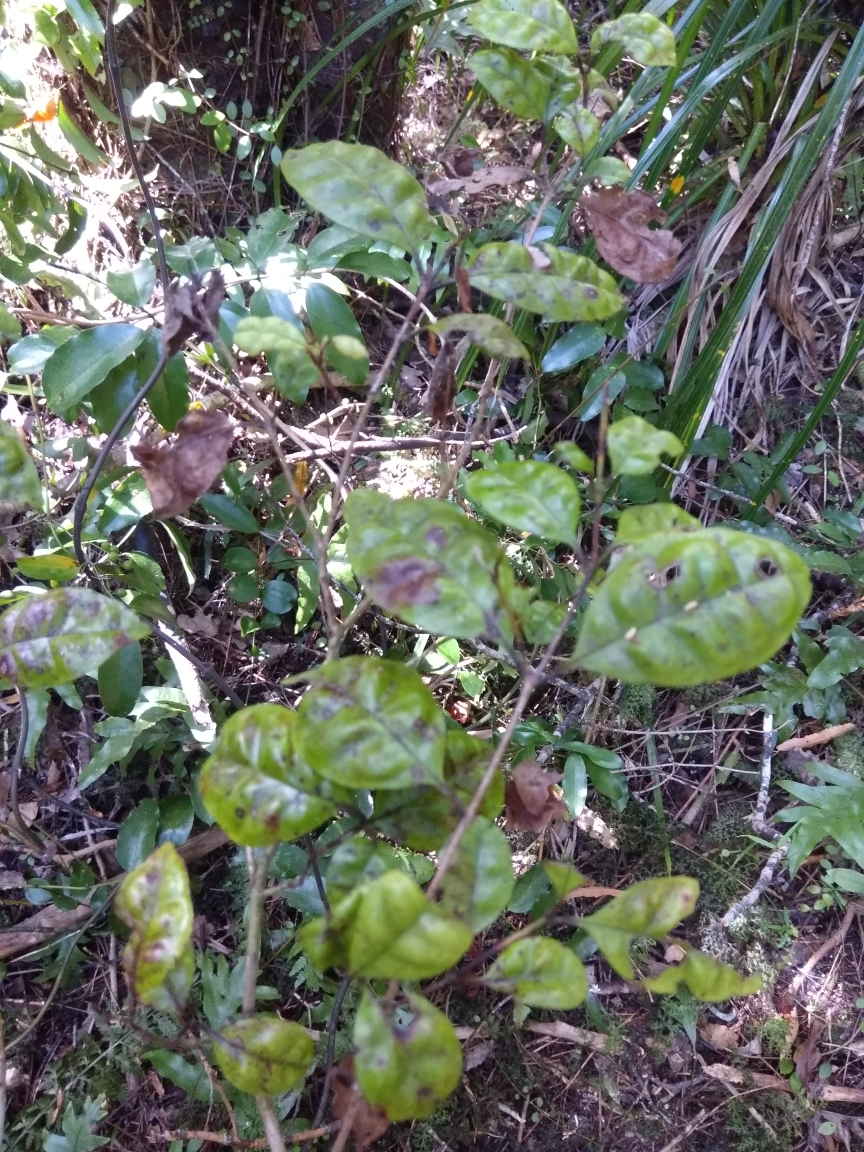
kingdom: Plantae
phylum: Tracheophyta
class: Magnoliopsida
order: Myrtales
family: Myrtaceae
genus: Lophomyrtus
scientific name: Lophomyrtus bullata
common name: Rama rama
